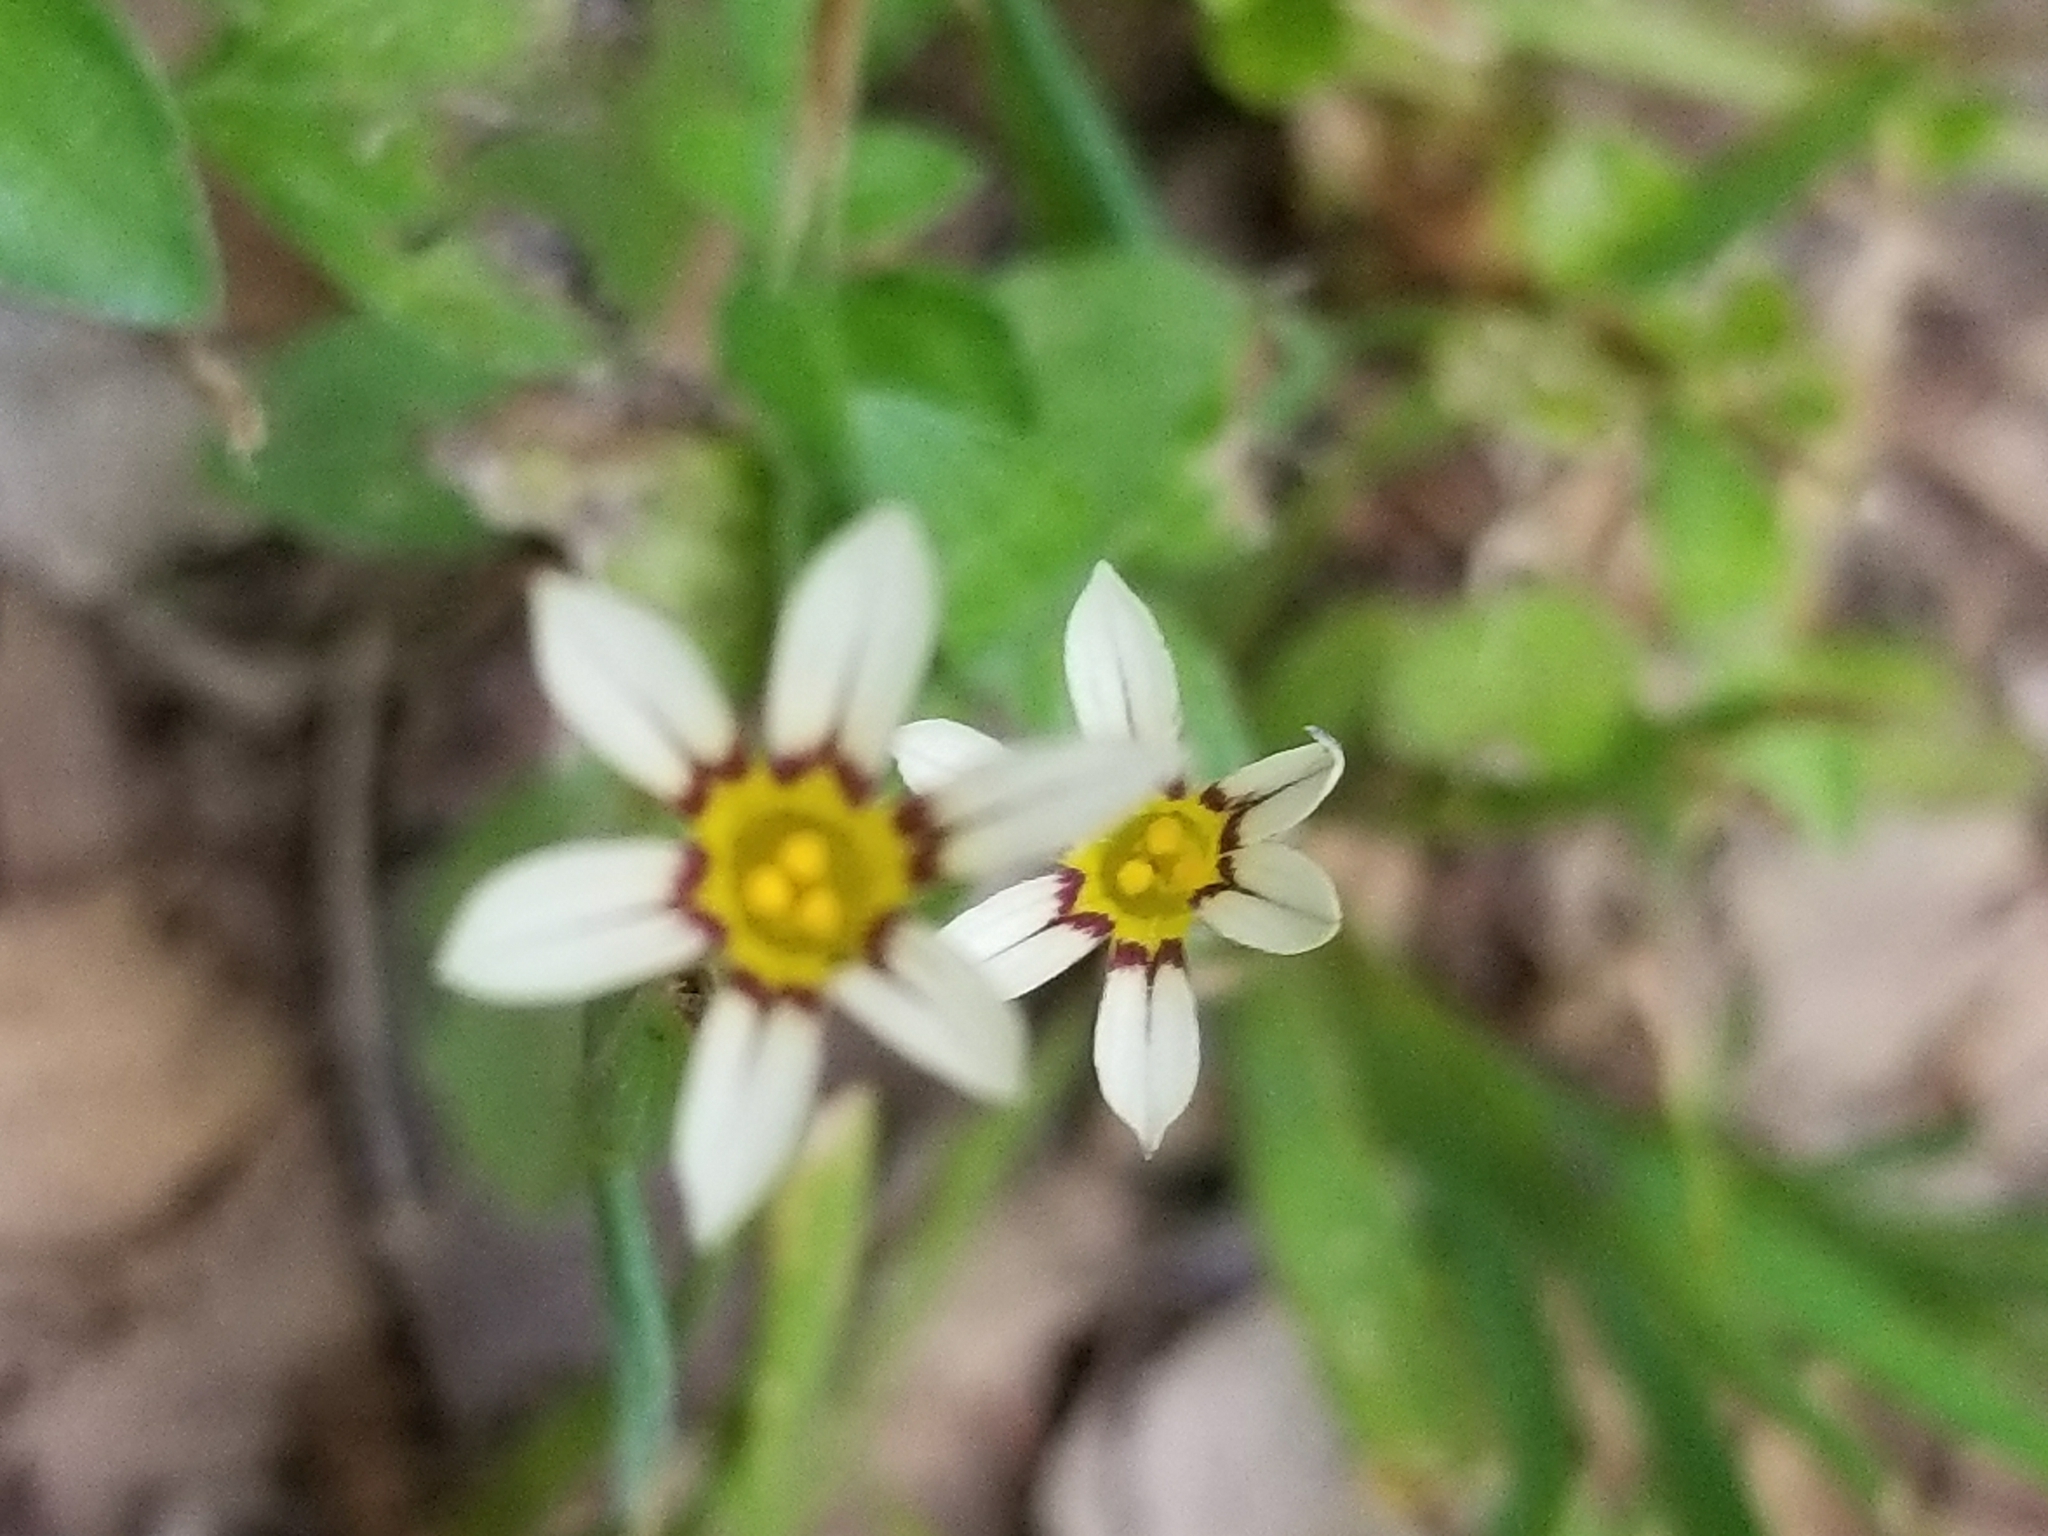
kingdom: Plantae
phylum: Tracheophyta
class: Liliopsida
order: Asparagales
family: Iridaceae
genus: Sisyrinchium
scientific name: Sisyrinchium micranthum
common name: Bermuda pigroot
